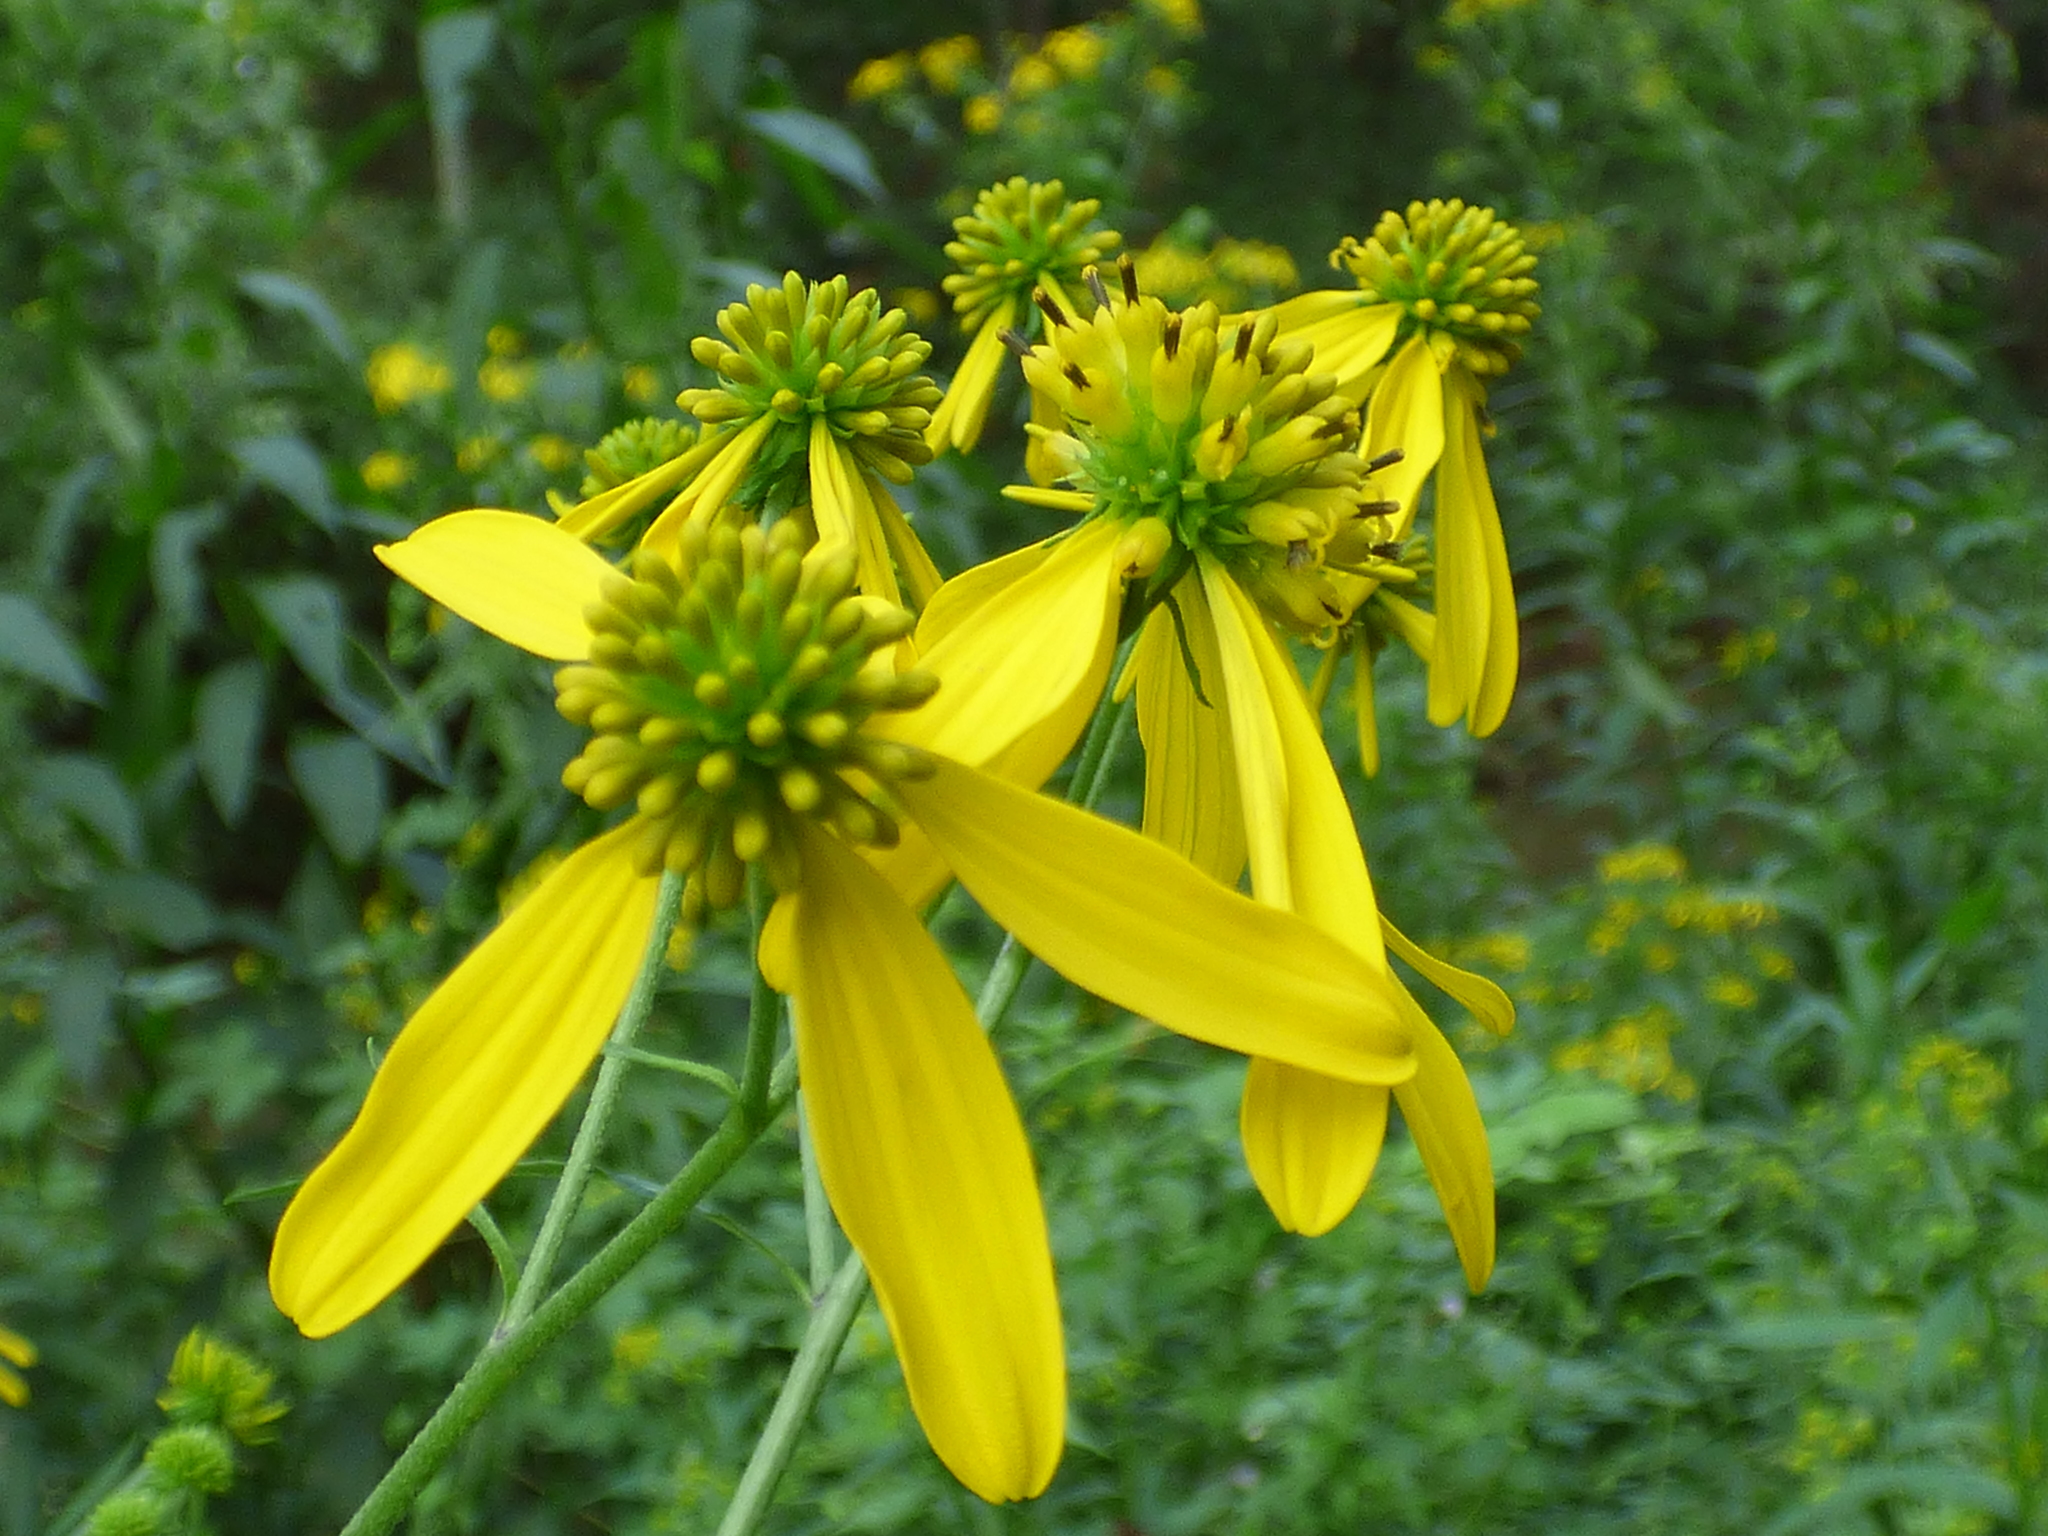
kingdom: Plantae
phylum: Tracheophyta
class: Magnoliopsida
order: Asterales
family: Asteraceae
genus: Verbesina
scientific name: Verbesina alternifolia
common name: Wingstem
